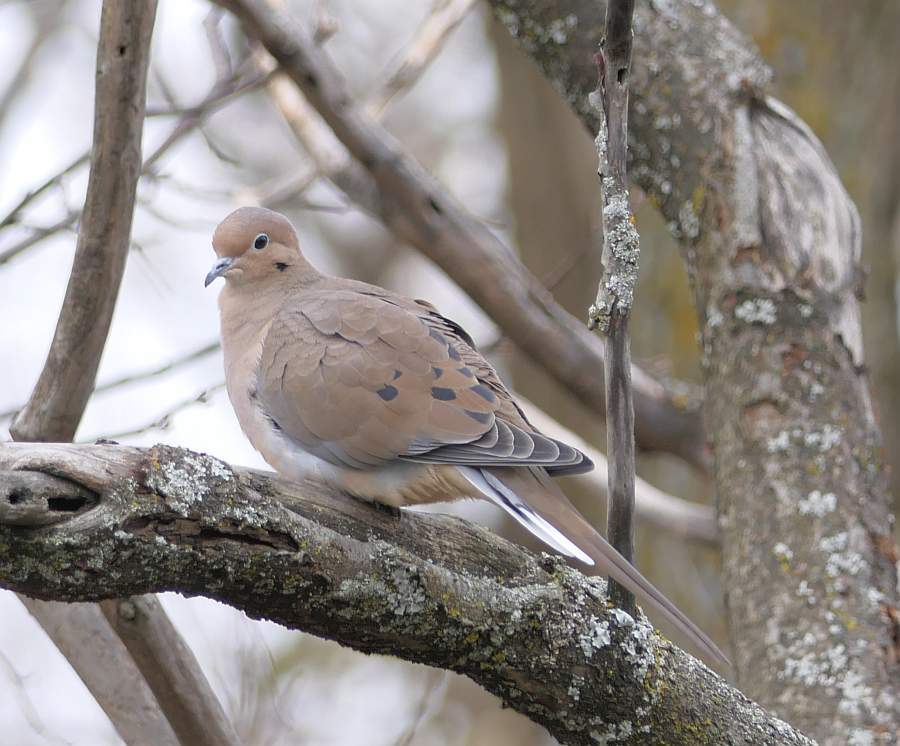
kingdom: Animalia
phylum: Chordata
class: Aves
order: Columbiformes
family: Columbidae
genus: Zenaida
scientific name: Zenaida macroura
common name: Mourning dove
